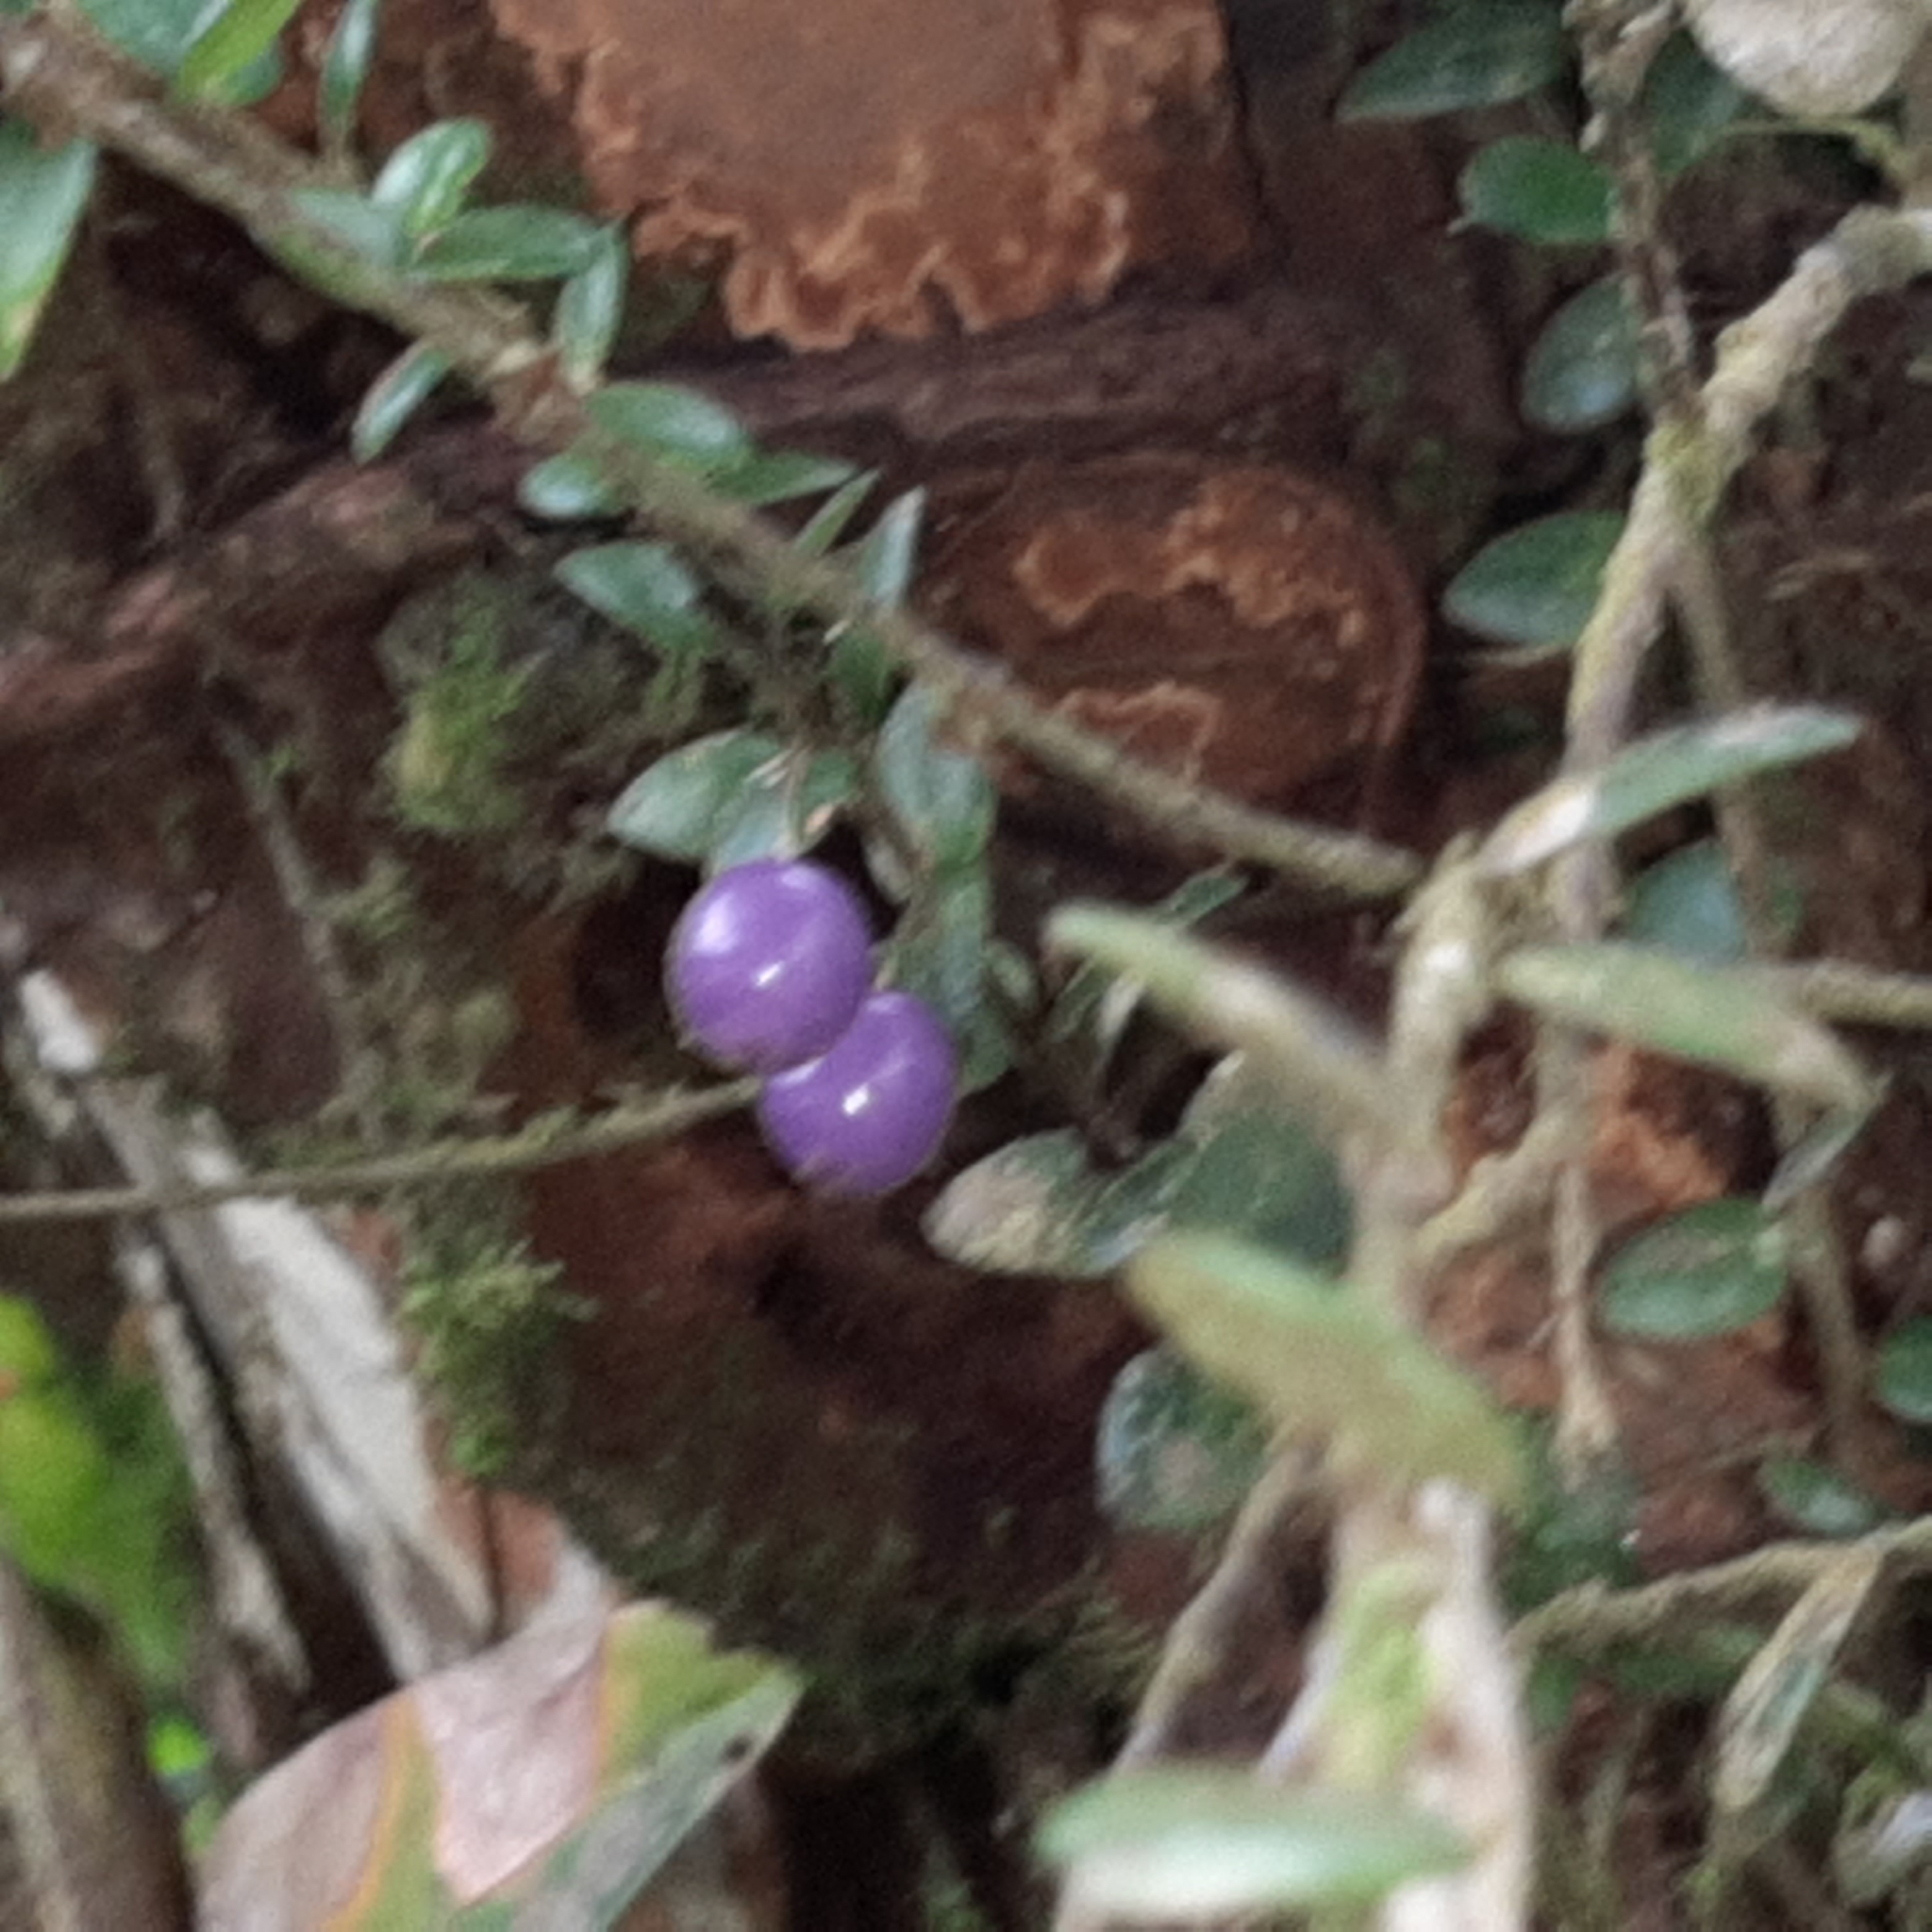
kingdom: Plantae
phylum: Tracheophyta
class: Magnoliopsida
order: Ericales
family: Ericaceae
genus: Sphyrospermum
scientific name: Sphyrospermum buxifolium
